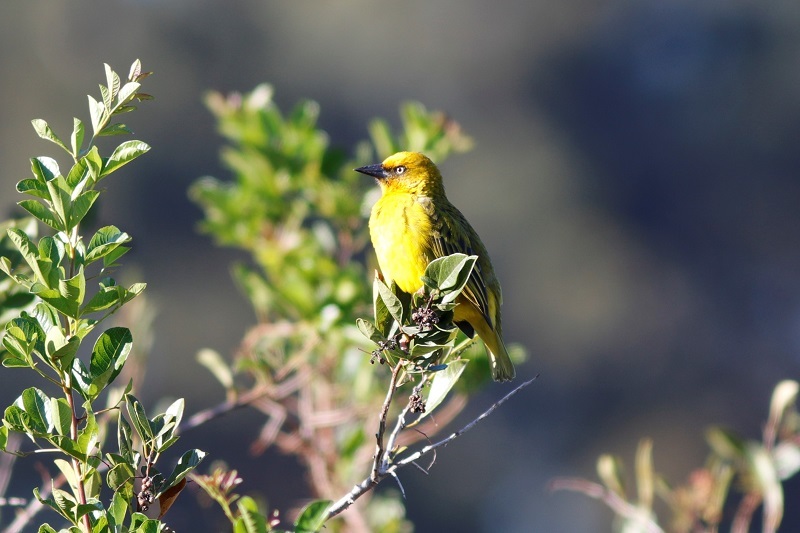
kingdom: Animalia
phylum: Chordata
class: Aves
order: Passeriformes
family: Ploceidae
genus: Ploceus
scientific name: Ploceus capensis
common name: Cape weaver
